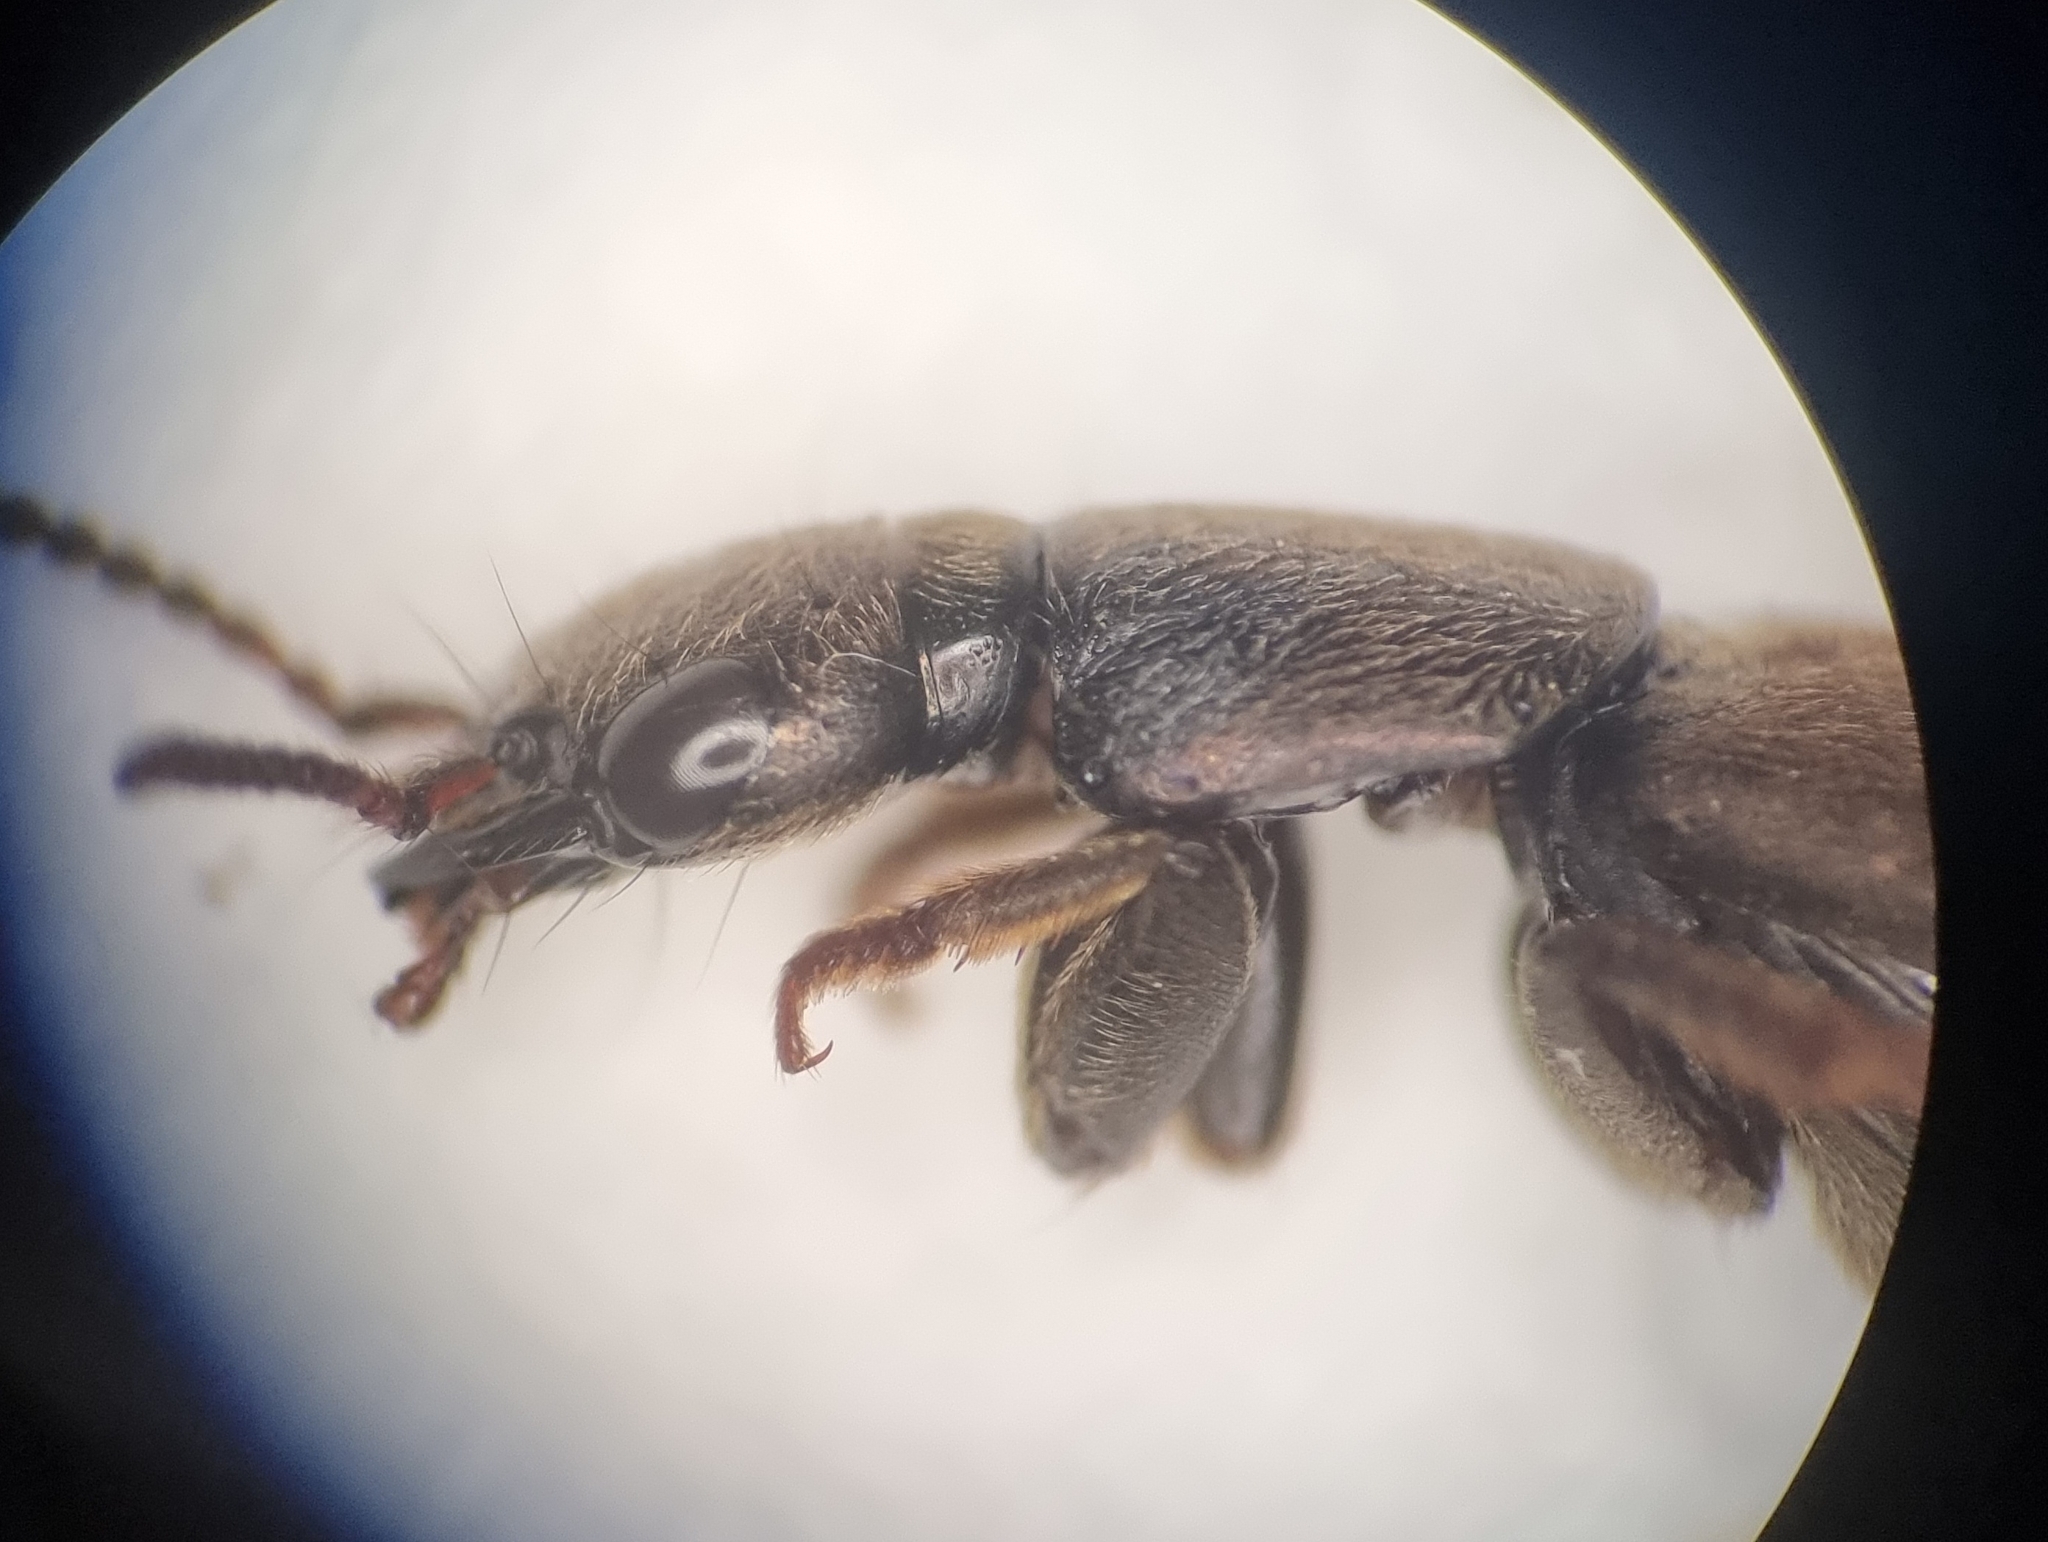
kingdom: Animalia
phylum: Arthropoda
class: Insecta
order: Coleoptera
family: Staphylinidae
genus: Ocypus
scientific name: Ocypus aeneocephalus
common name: Staph beetle
